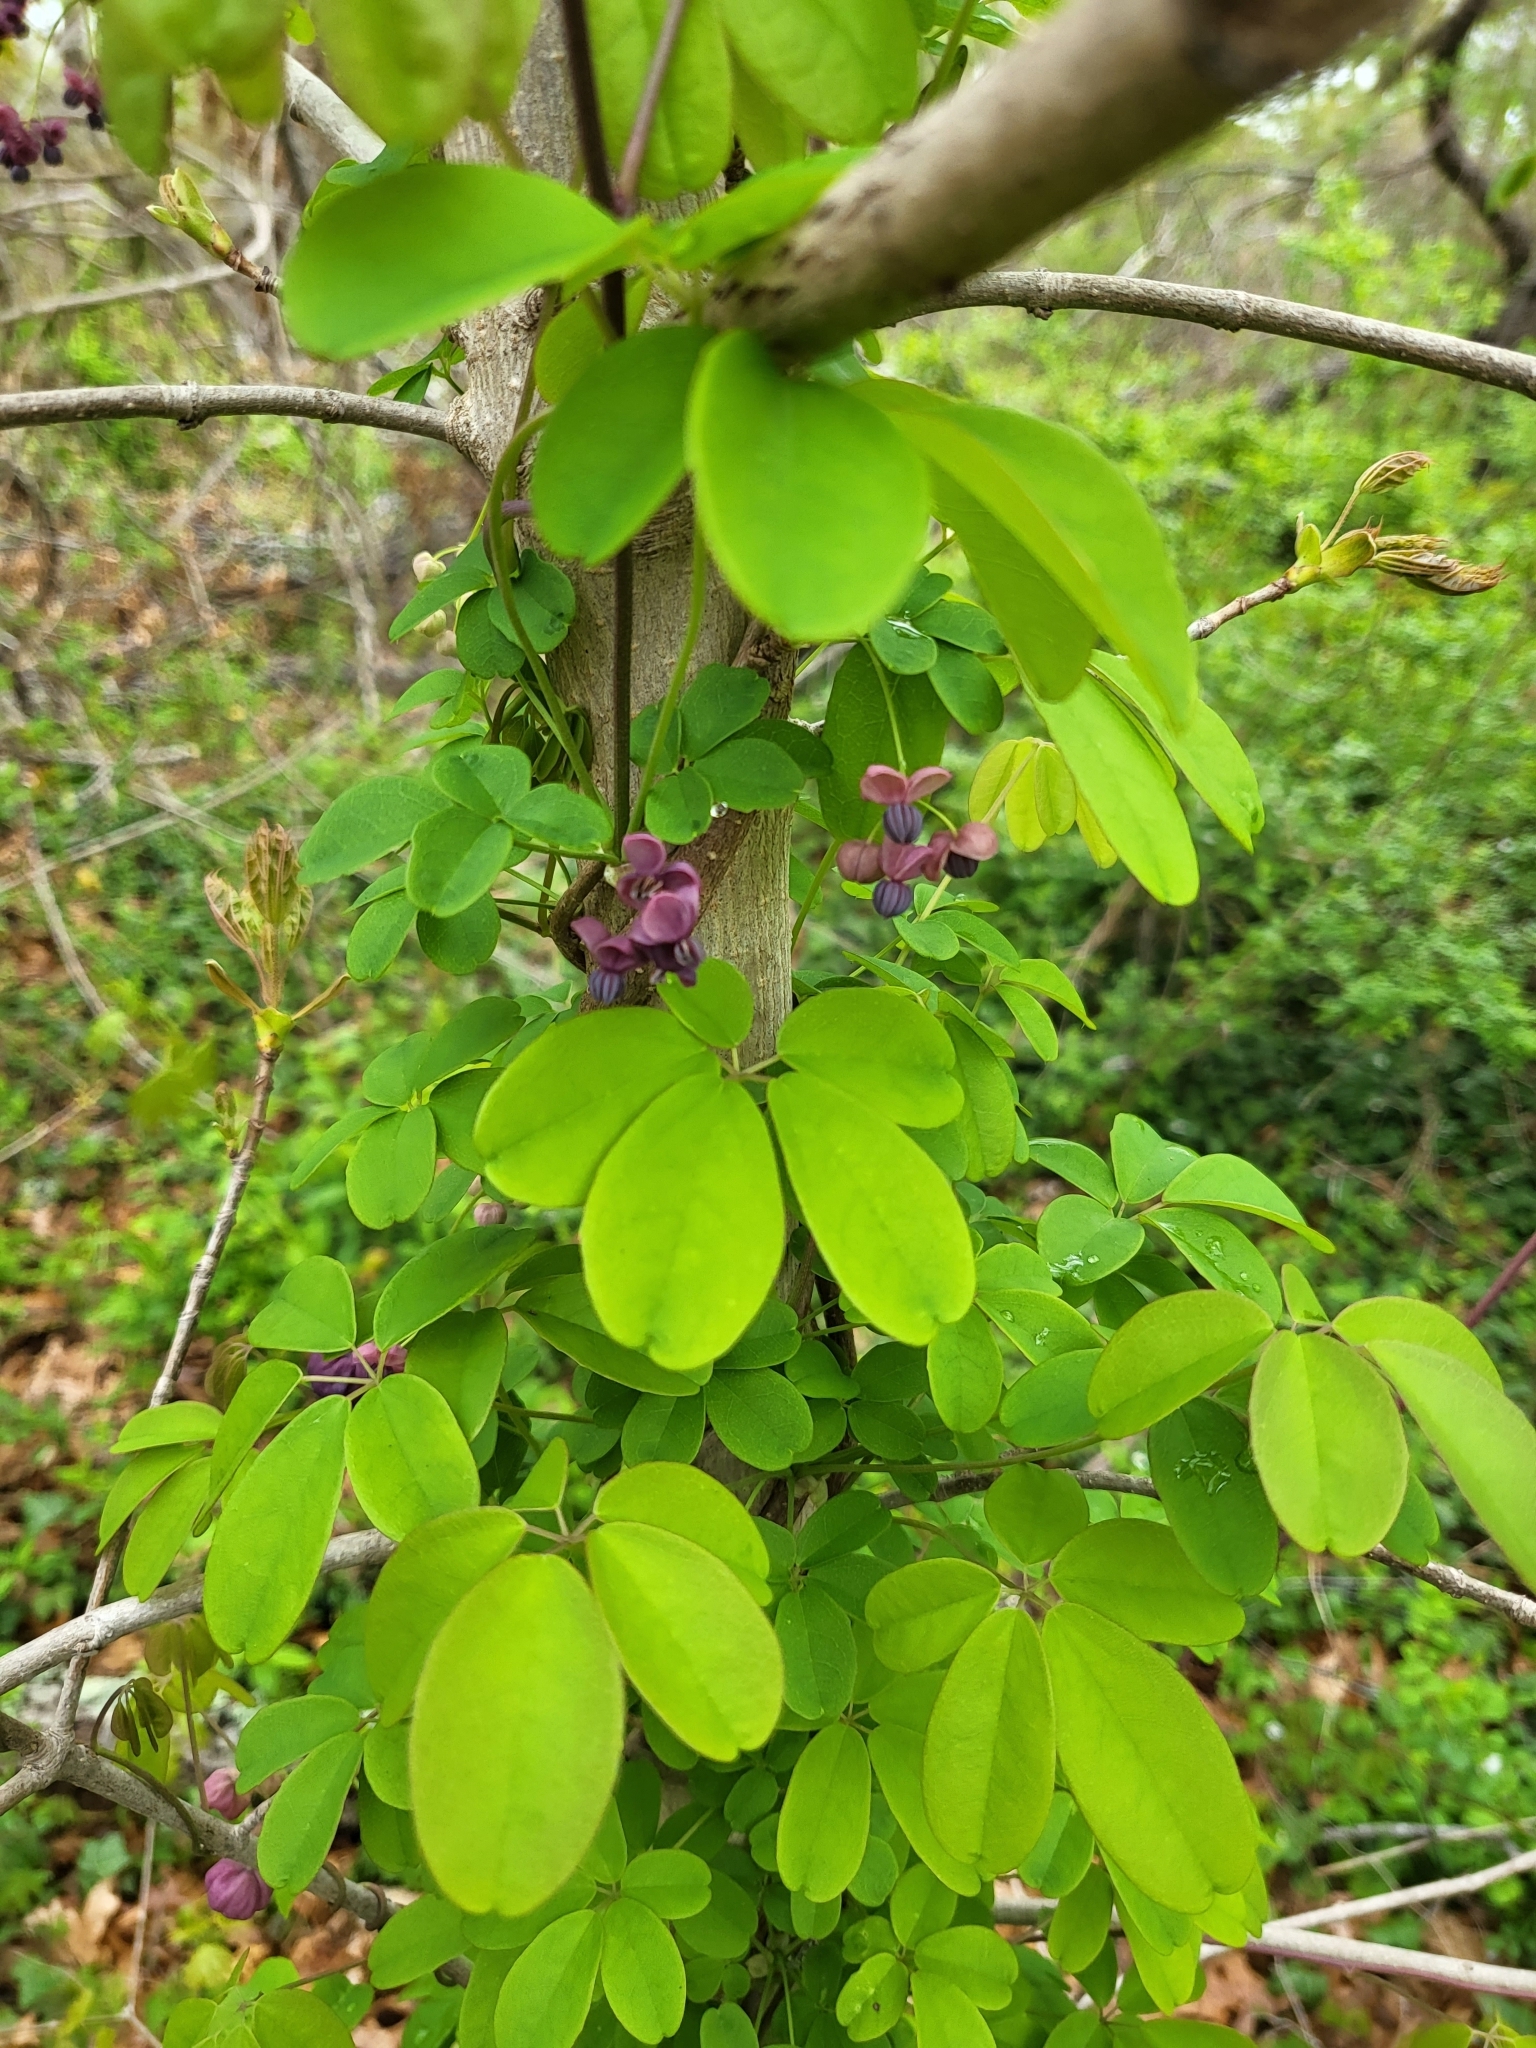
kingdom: Plantae
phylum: Tracheophyta
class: Magnoliopsida
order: Ranunculales
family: Lardizabalaceae
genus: Akebia
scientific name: Akebia quinata
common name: Five-leaf akebia
